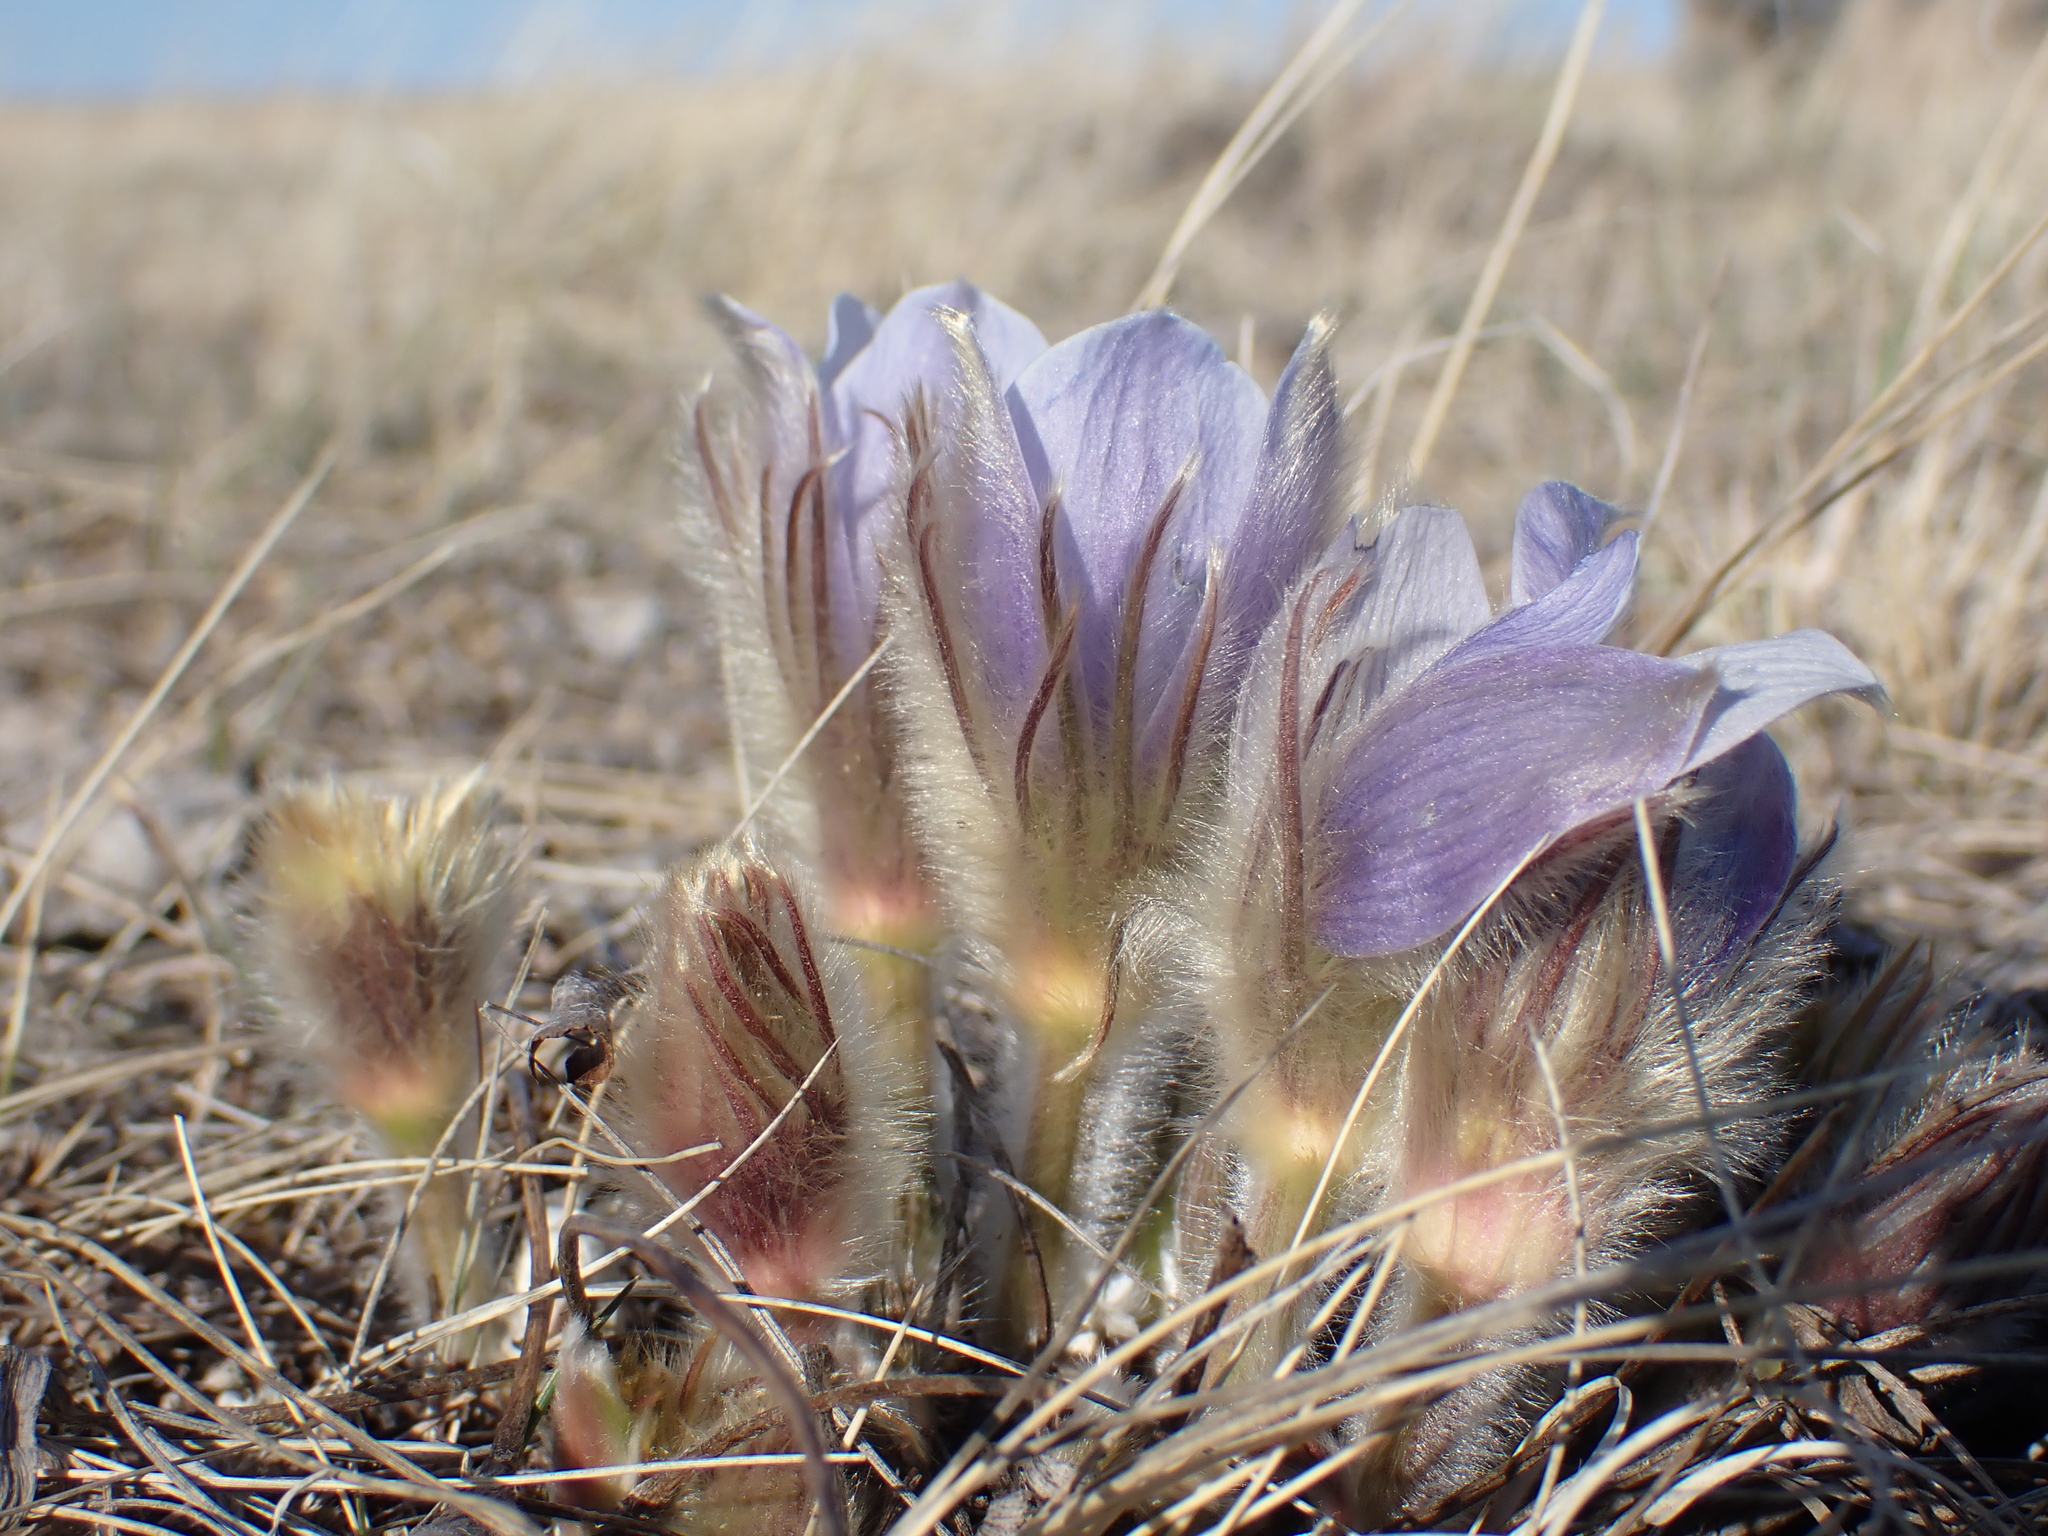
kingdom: Plantae
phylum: Tracheophyta
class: Magnoliopsida
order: Ranunculales
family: Ranunculaceae
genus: Pulsatilla
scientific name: Pulsatilla nuttalliana
